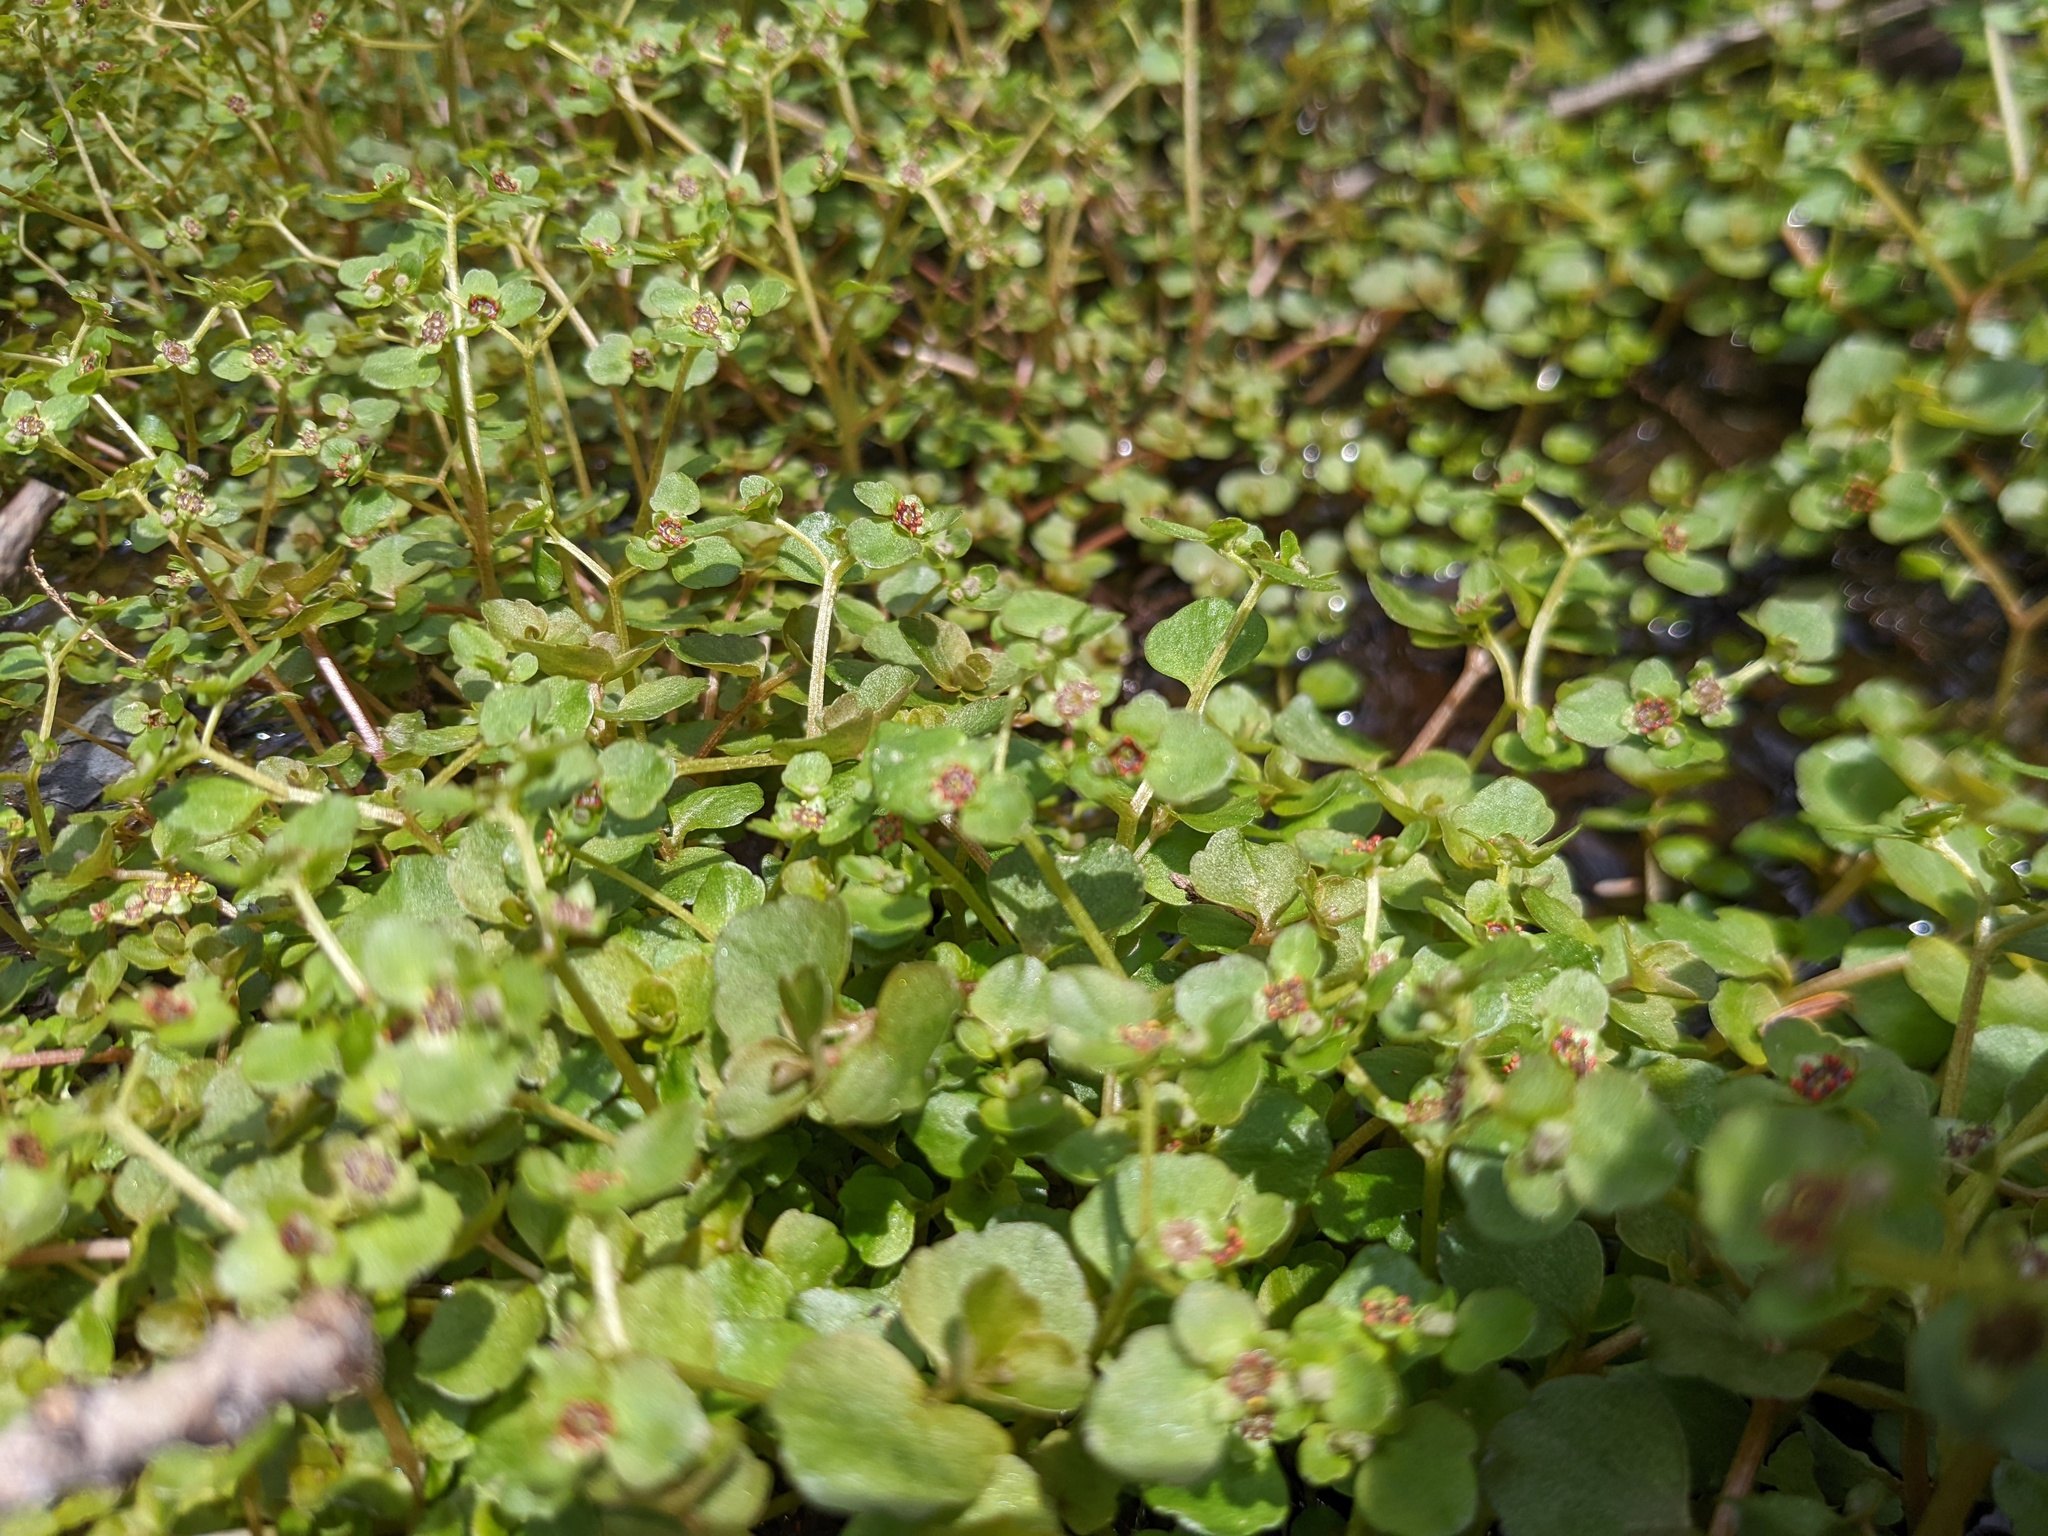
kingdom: Plantae
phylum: Tracheophyta
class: Magnoliopsida
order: Saxifragales
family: Saxifragaceae
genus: Chrysosplenium
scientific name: Chrysosplenium americanum
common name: American golden-saxifrage
